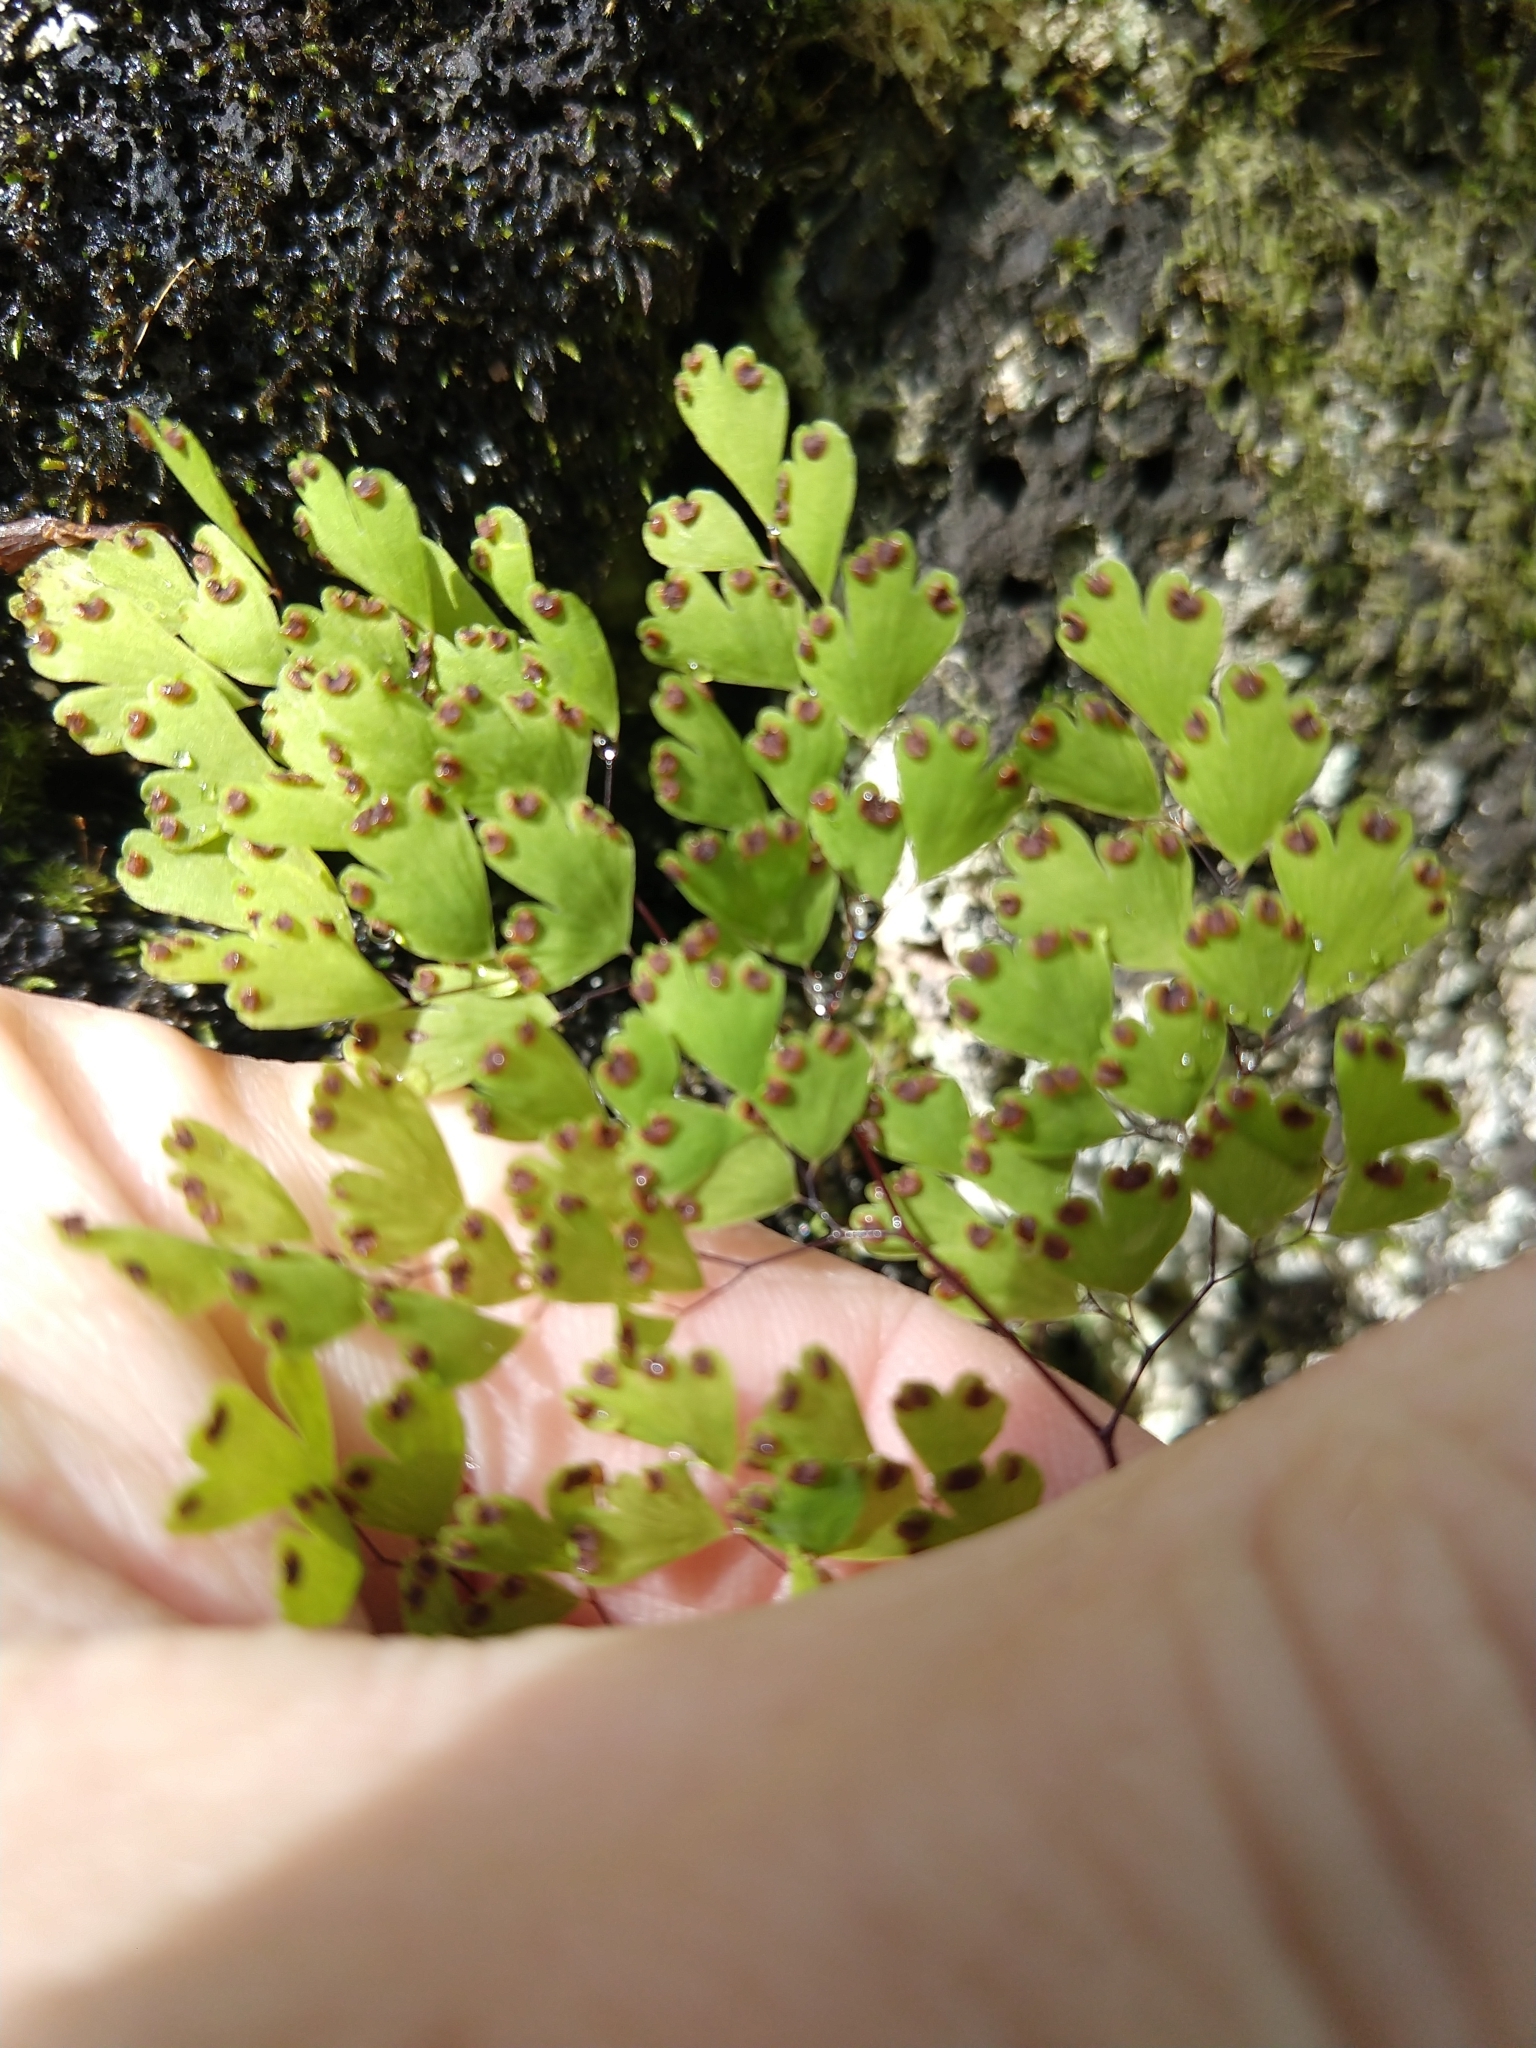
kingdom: Plantae
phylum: Tracheophyta
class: Polypodiopsida
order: Polypodiales
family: Pteridaceae
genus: Adiantum
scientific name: Adiantum raddianum
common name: Delta maidenhair fern
